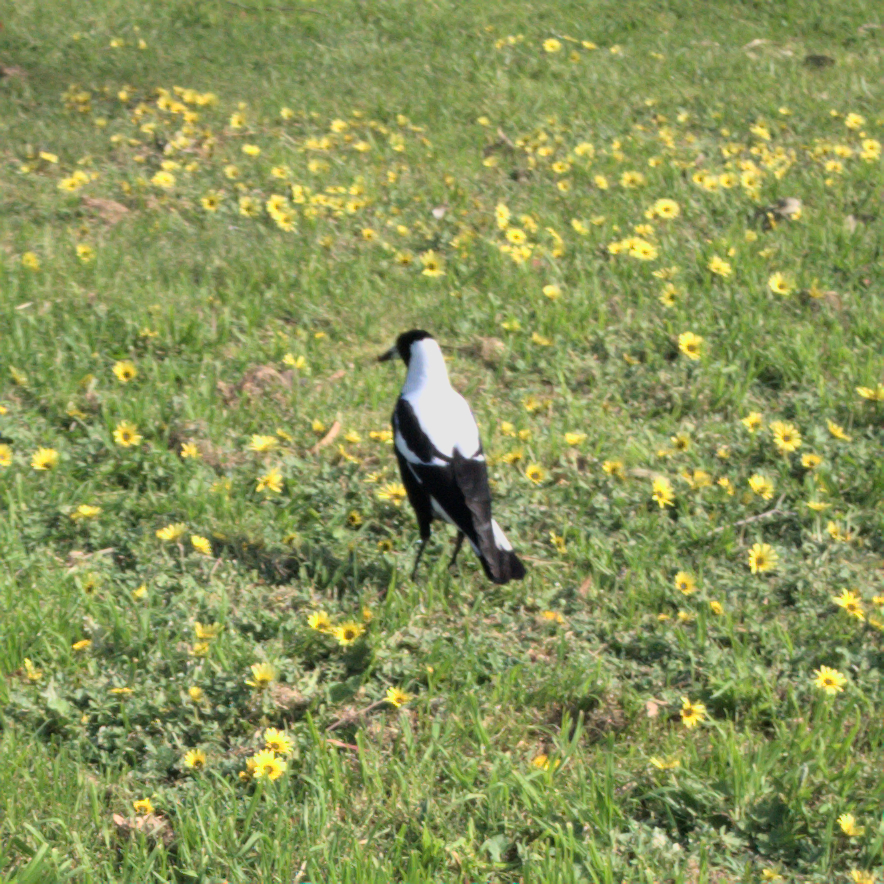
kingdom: Animalia
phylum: Chordata
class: Aves
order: Passeriformes
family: Cracticidae
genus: Gymnorhina
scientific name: Gymnorhina tibicen
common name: Australian magpie
